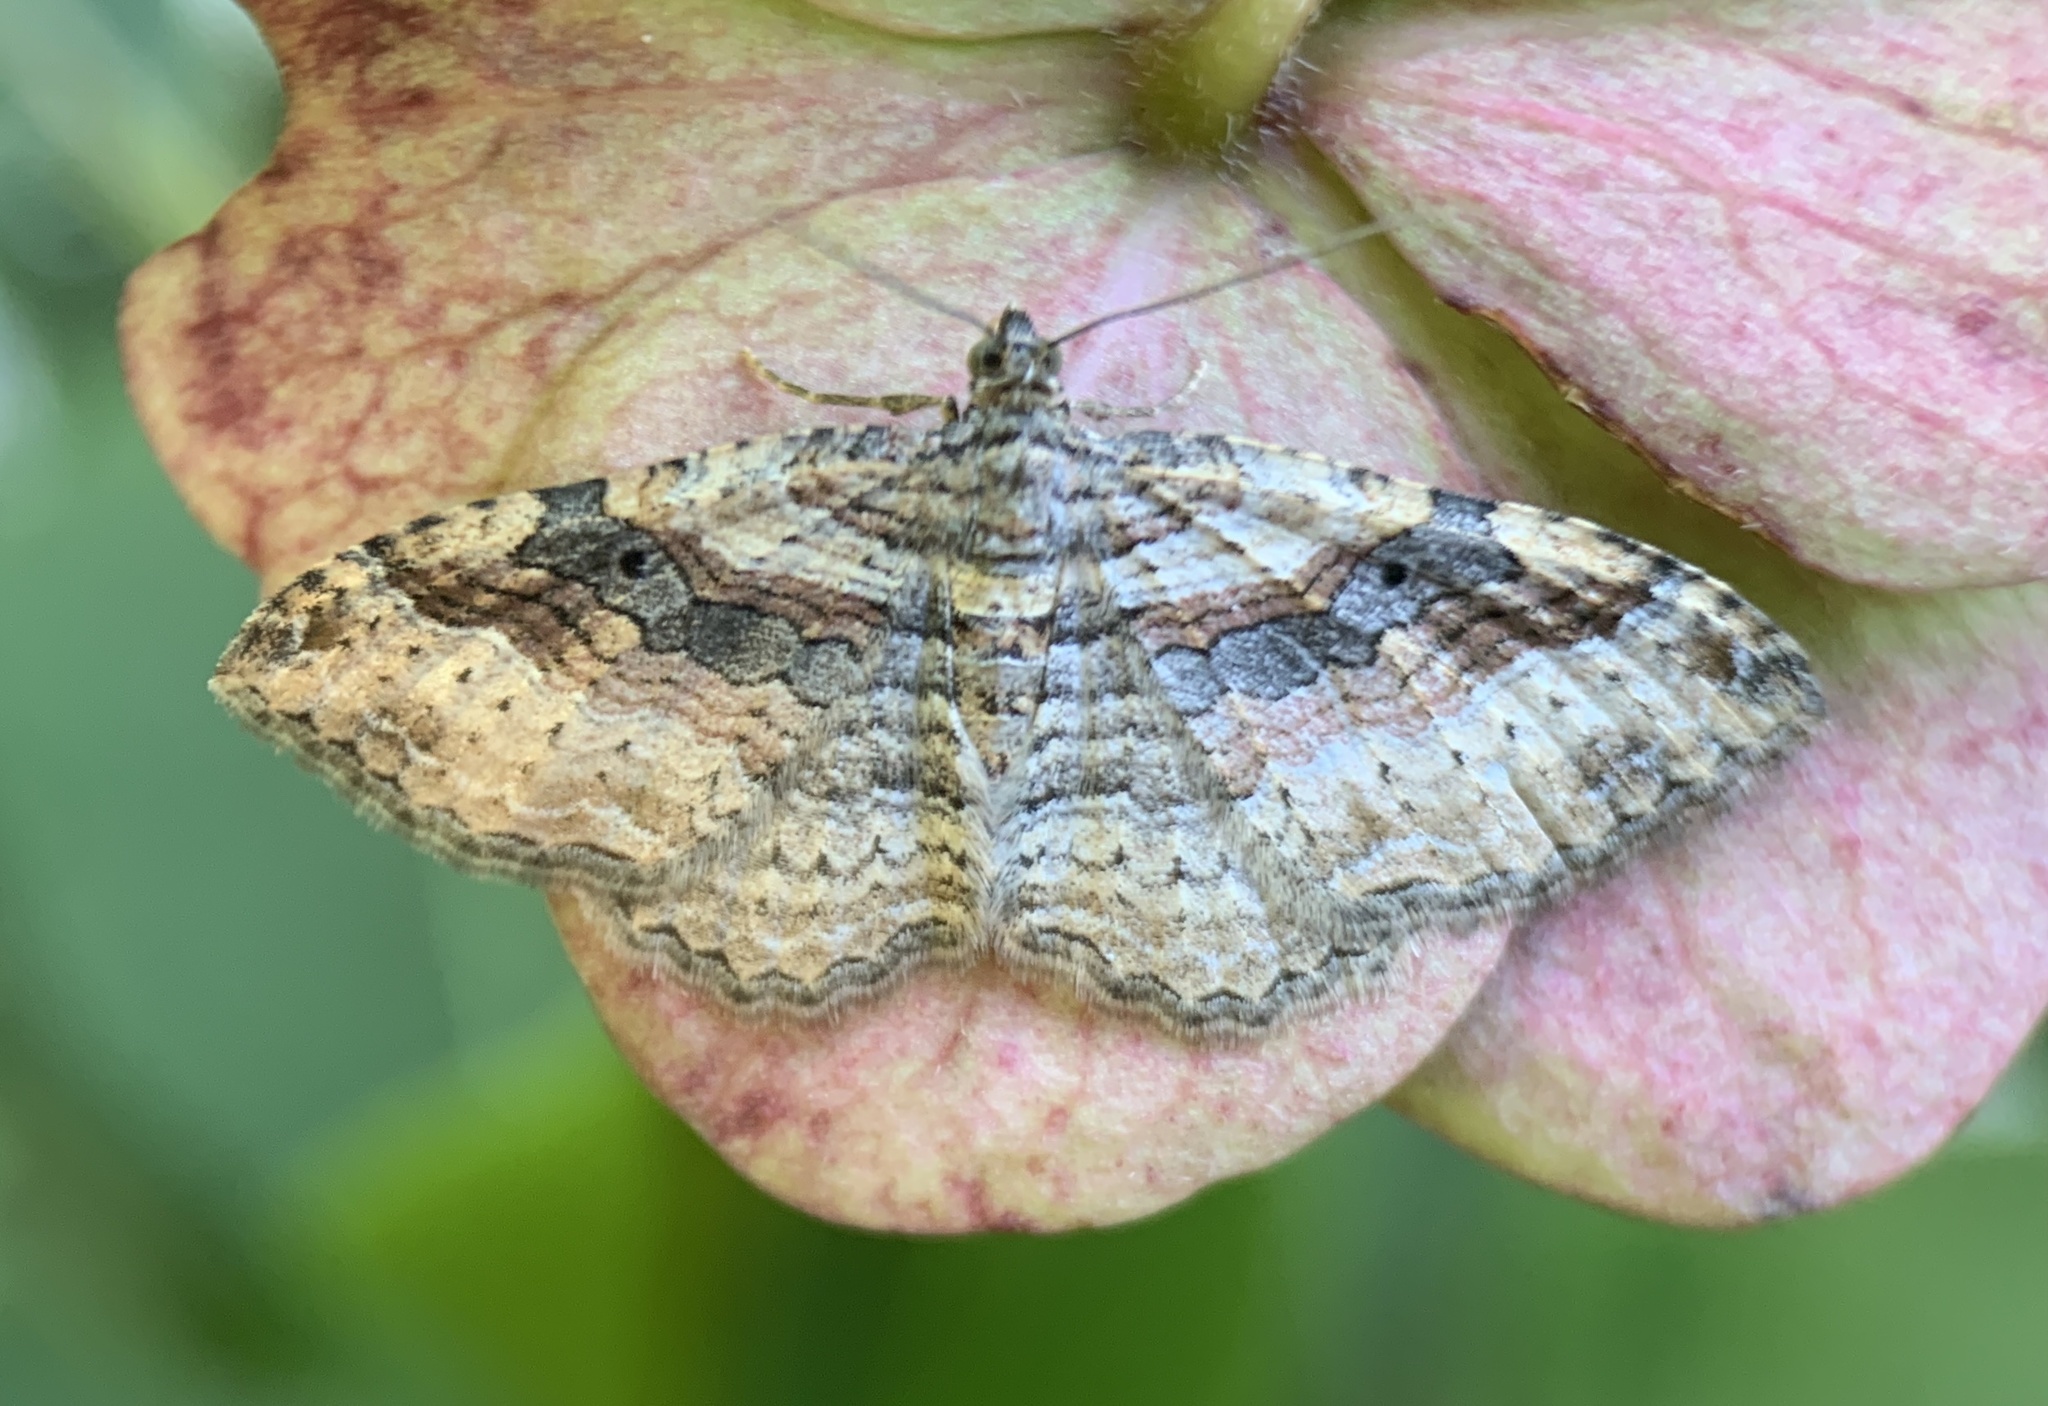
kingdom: Animalia
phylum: Arthropoda
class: Insecta
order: Lepidoptera
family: Geometridae
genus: Costaconvexa
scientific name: Costaconvexa centrostrigaria
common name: Bent-line carpet
